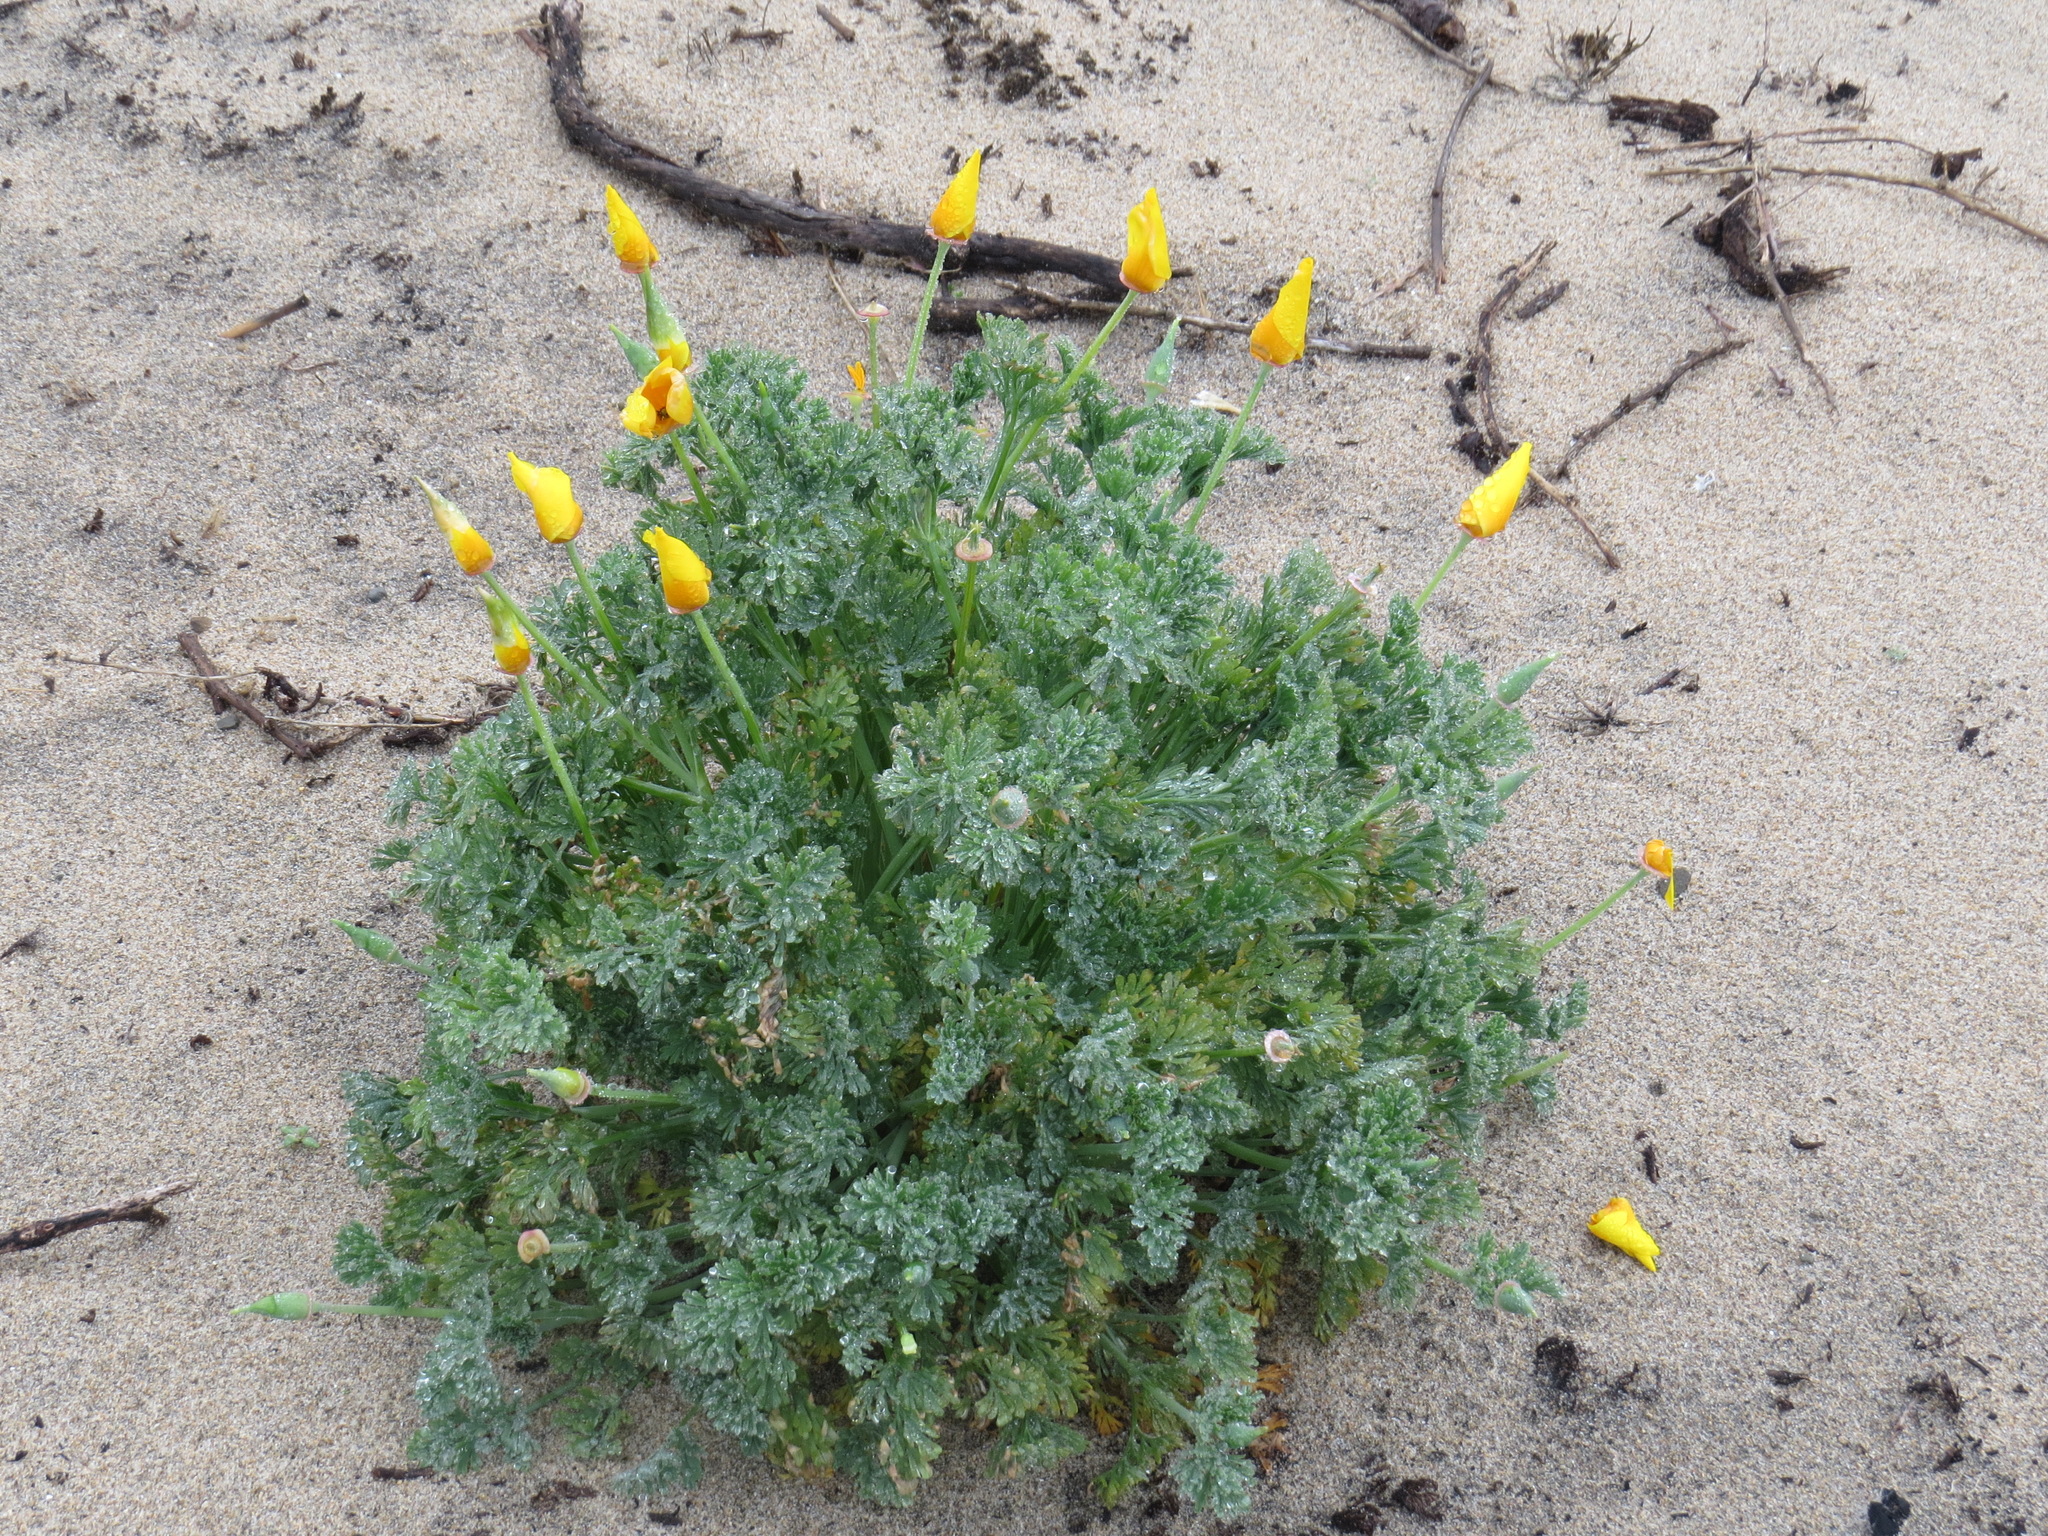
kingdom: Plantae
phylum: Tracheophyta
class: Magnoliopsida
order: Ranunculales
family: Papaveraceae
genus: Eschscholzia
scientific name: Eschscholzia californica
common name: California poppy
